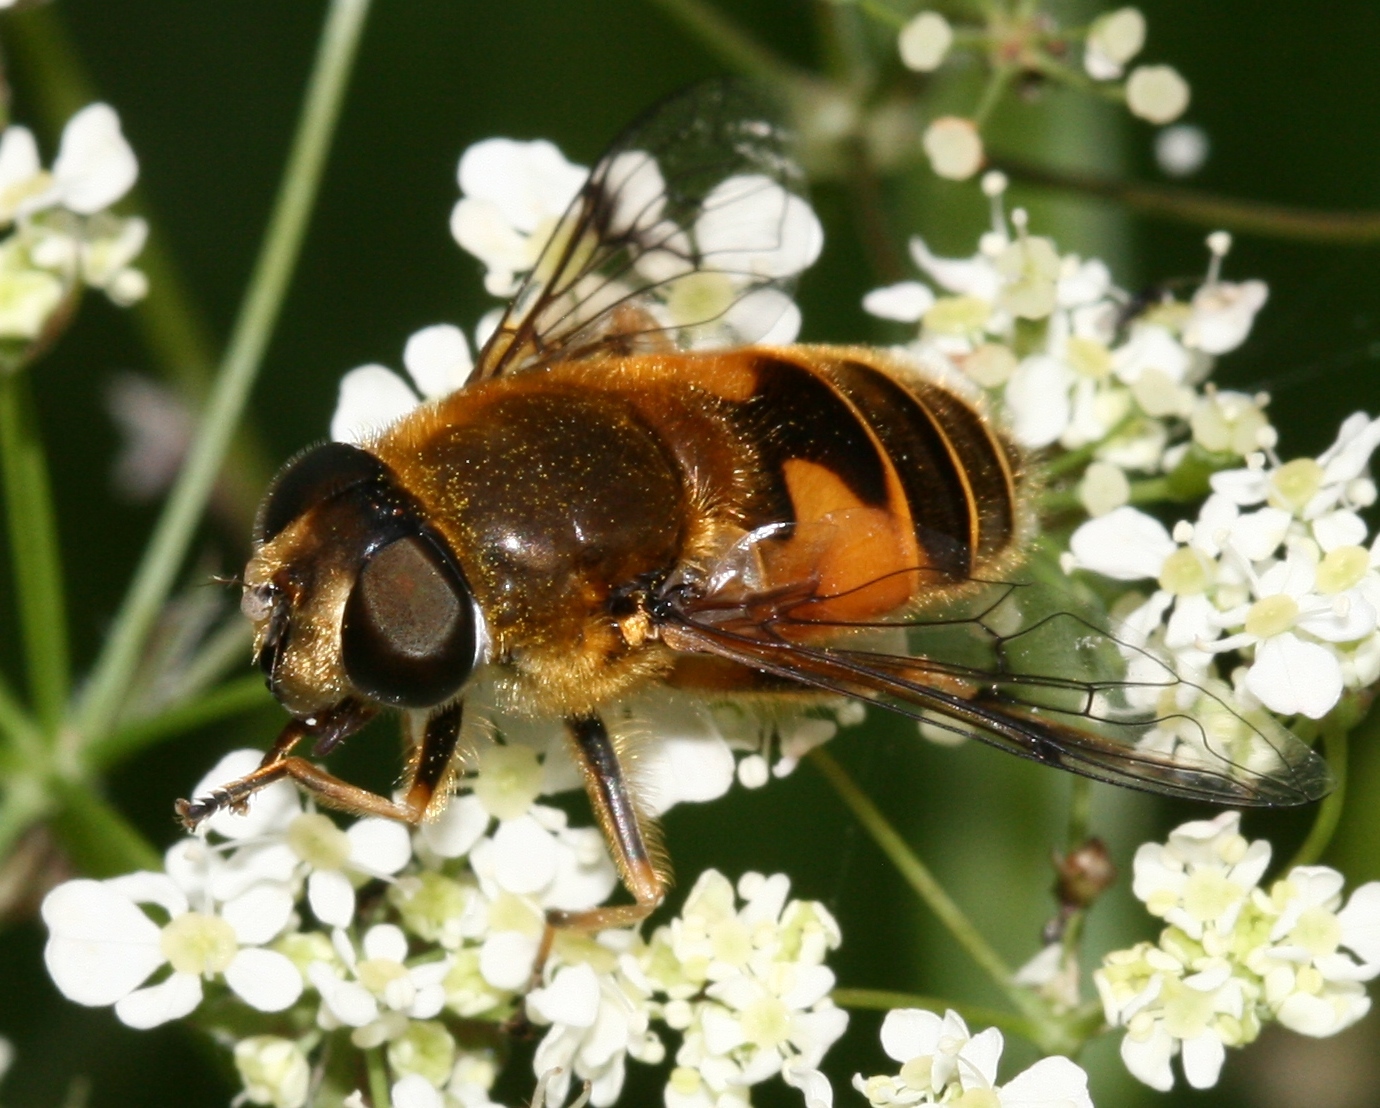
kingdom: Animalia
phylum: Arthropoda
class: Insecta
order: Diptera
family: Syrphidae
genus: Cheilosia
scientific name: Cheilosia morio
